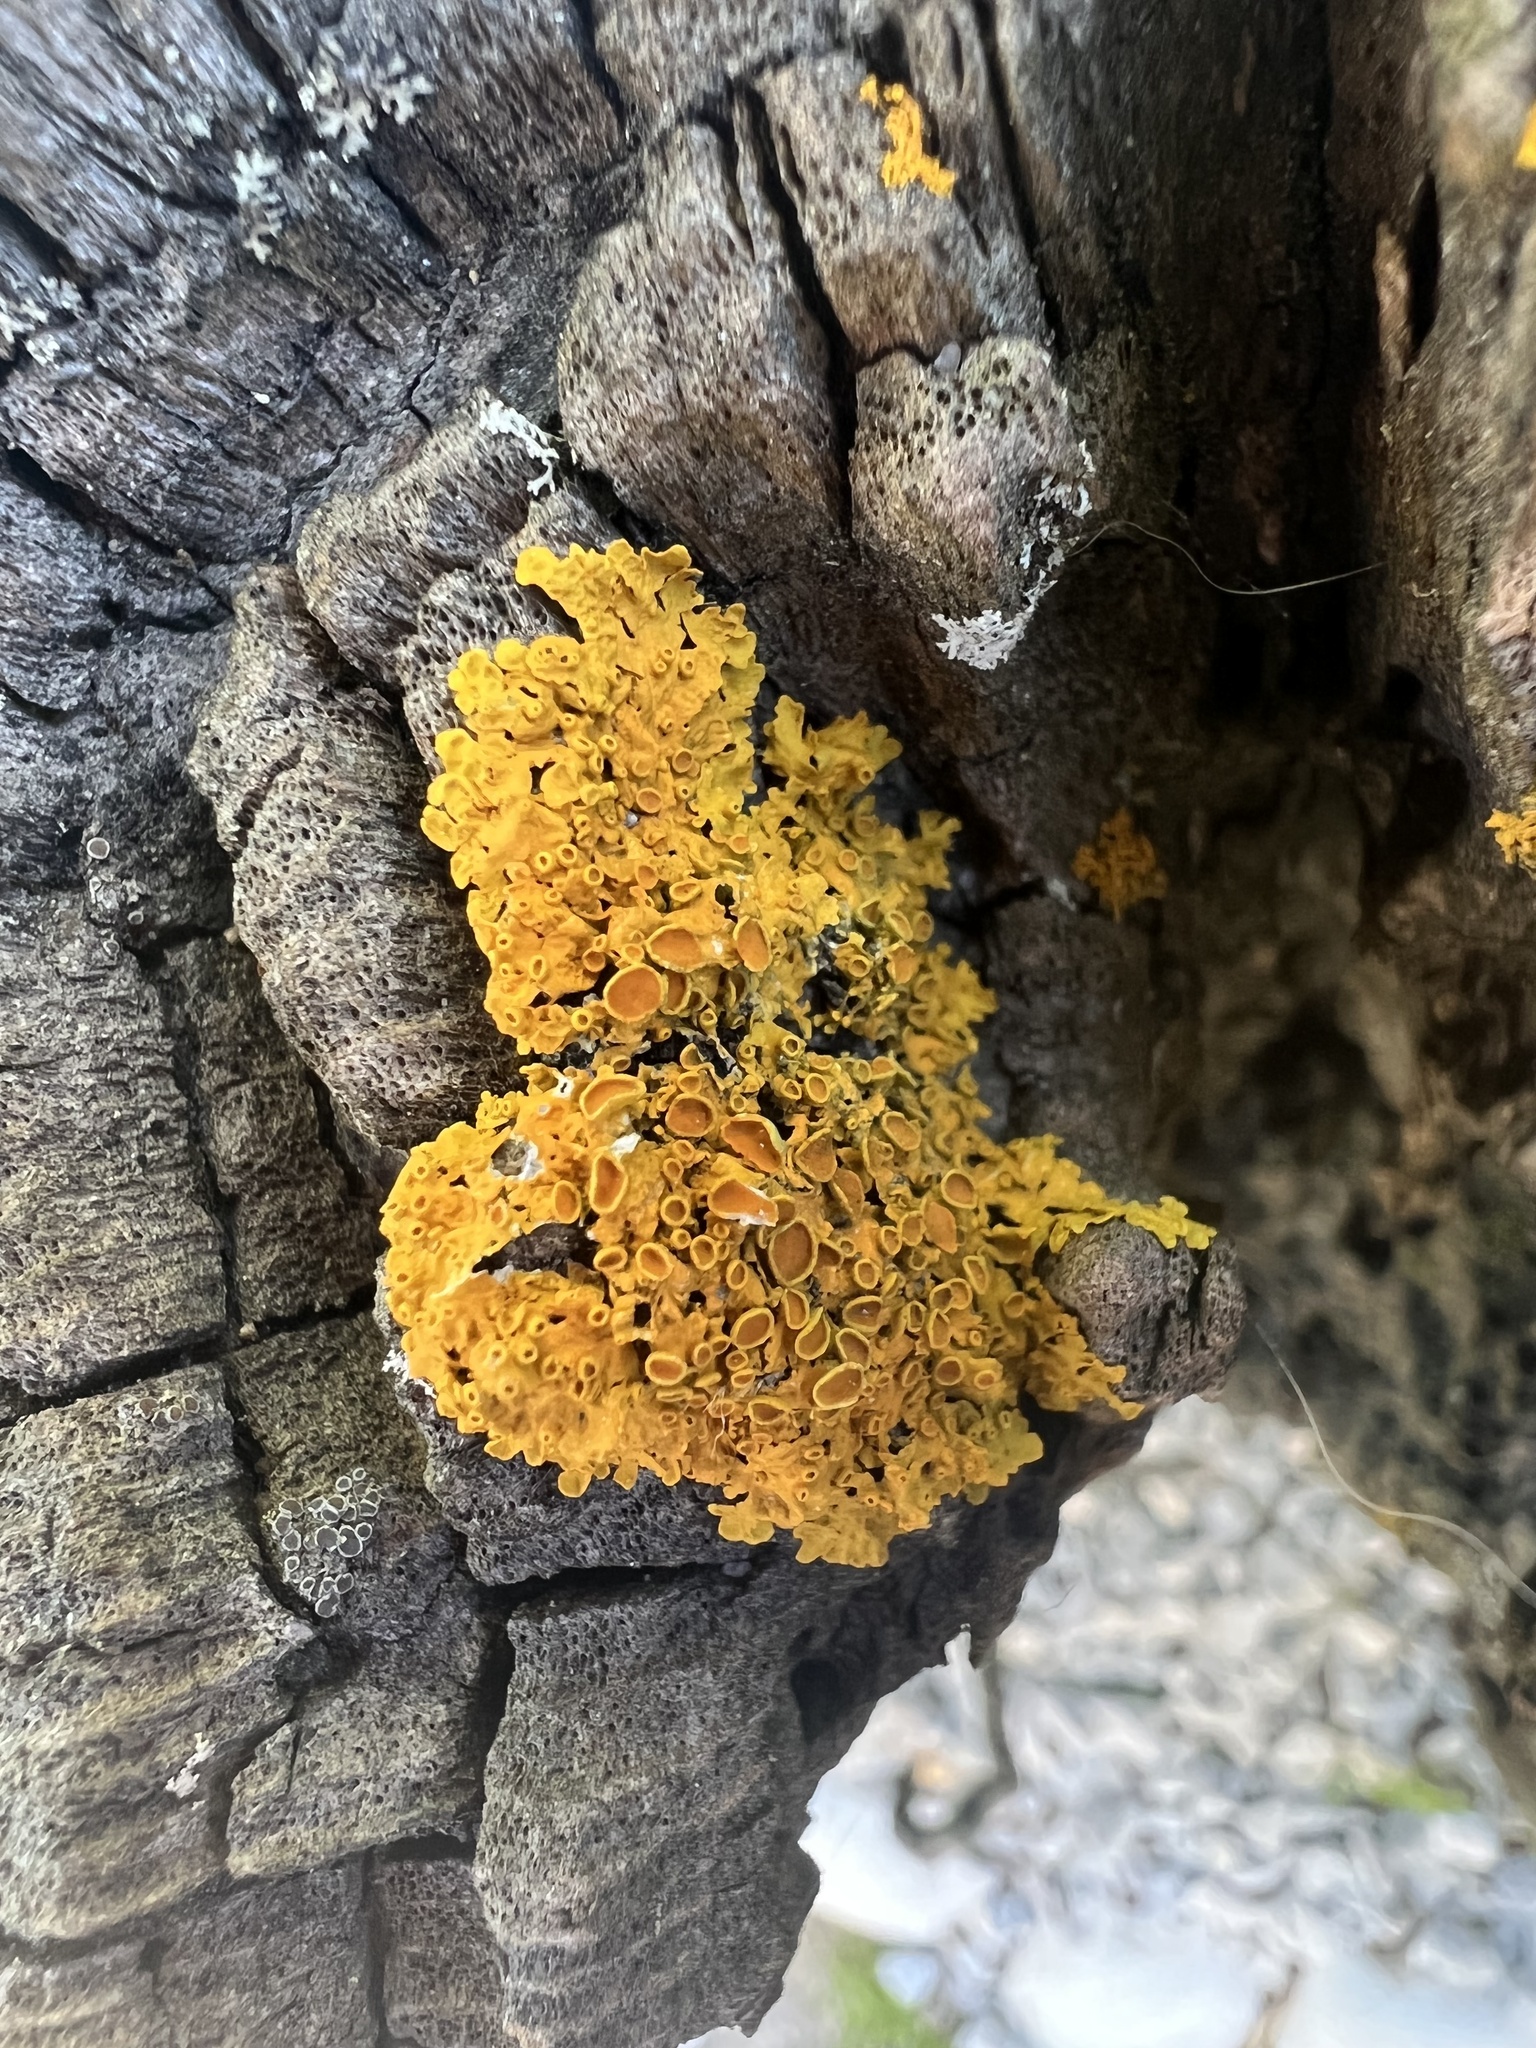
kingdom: Fungi
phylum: Ascomycota
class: Lecanoromycetes
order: Teloschistales
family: Teloschistaceae
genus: Xanthoria
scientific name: Xanthoria parietina
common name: Common orange lichen
